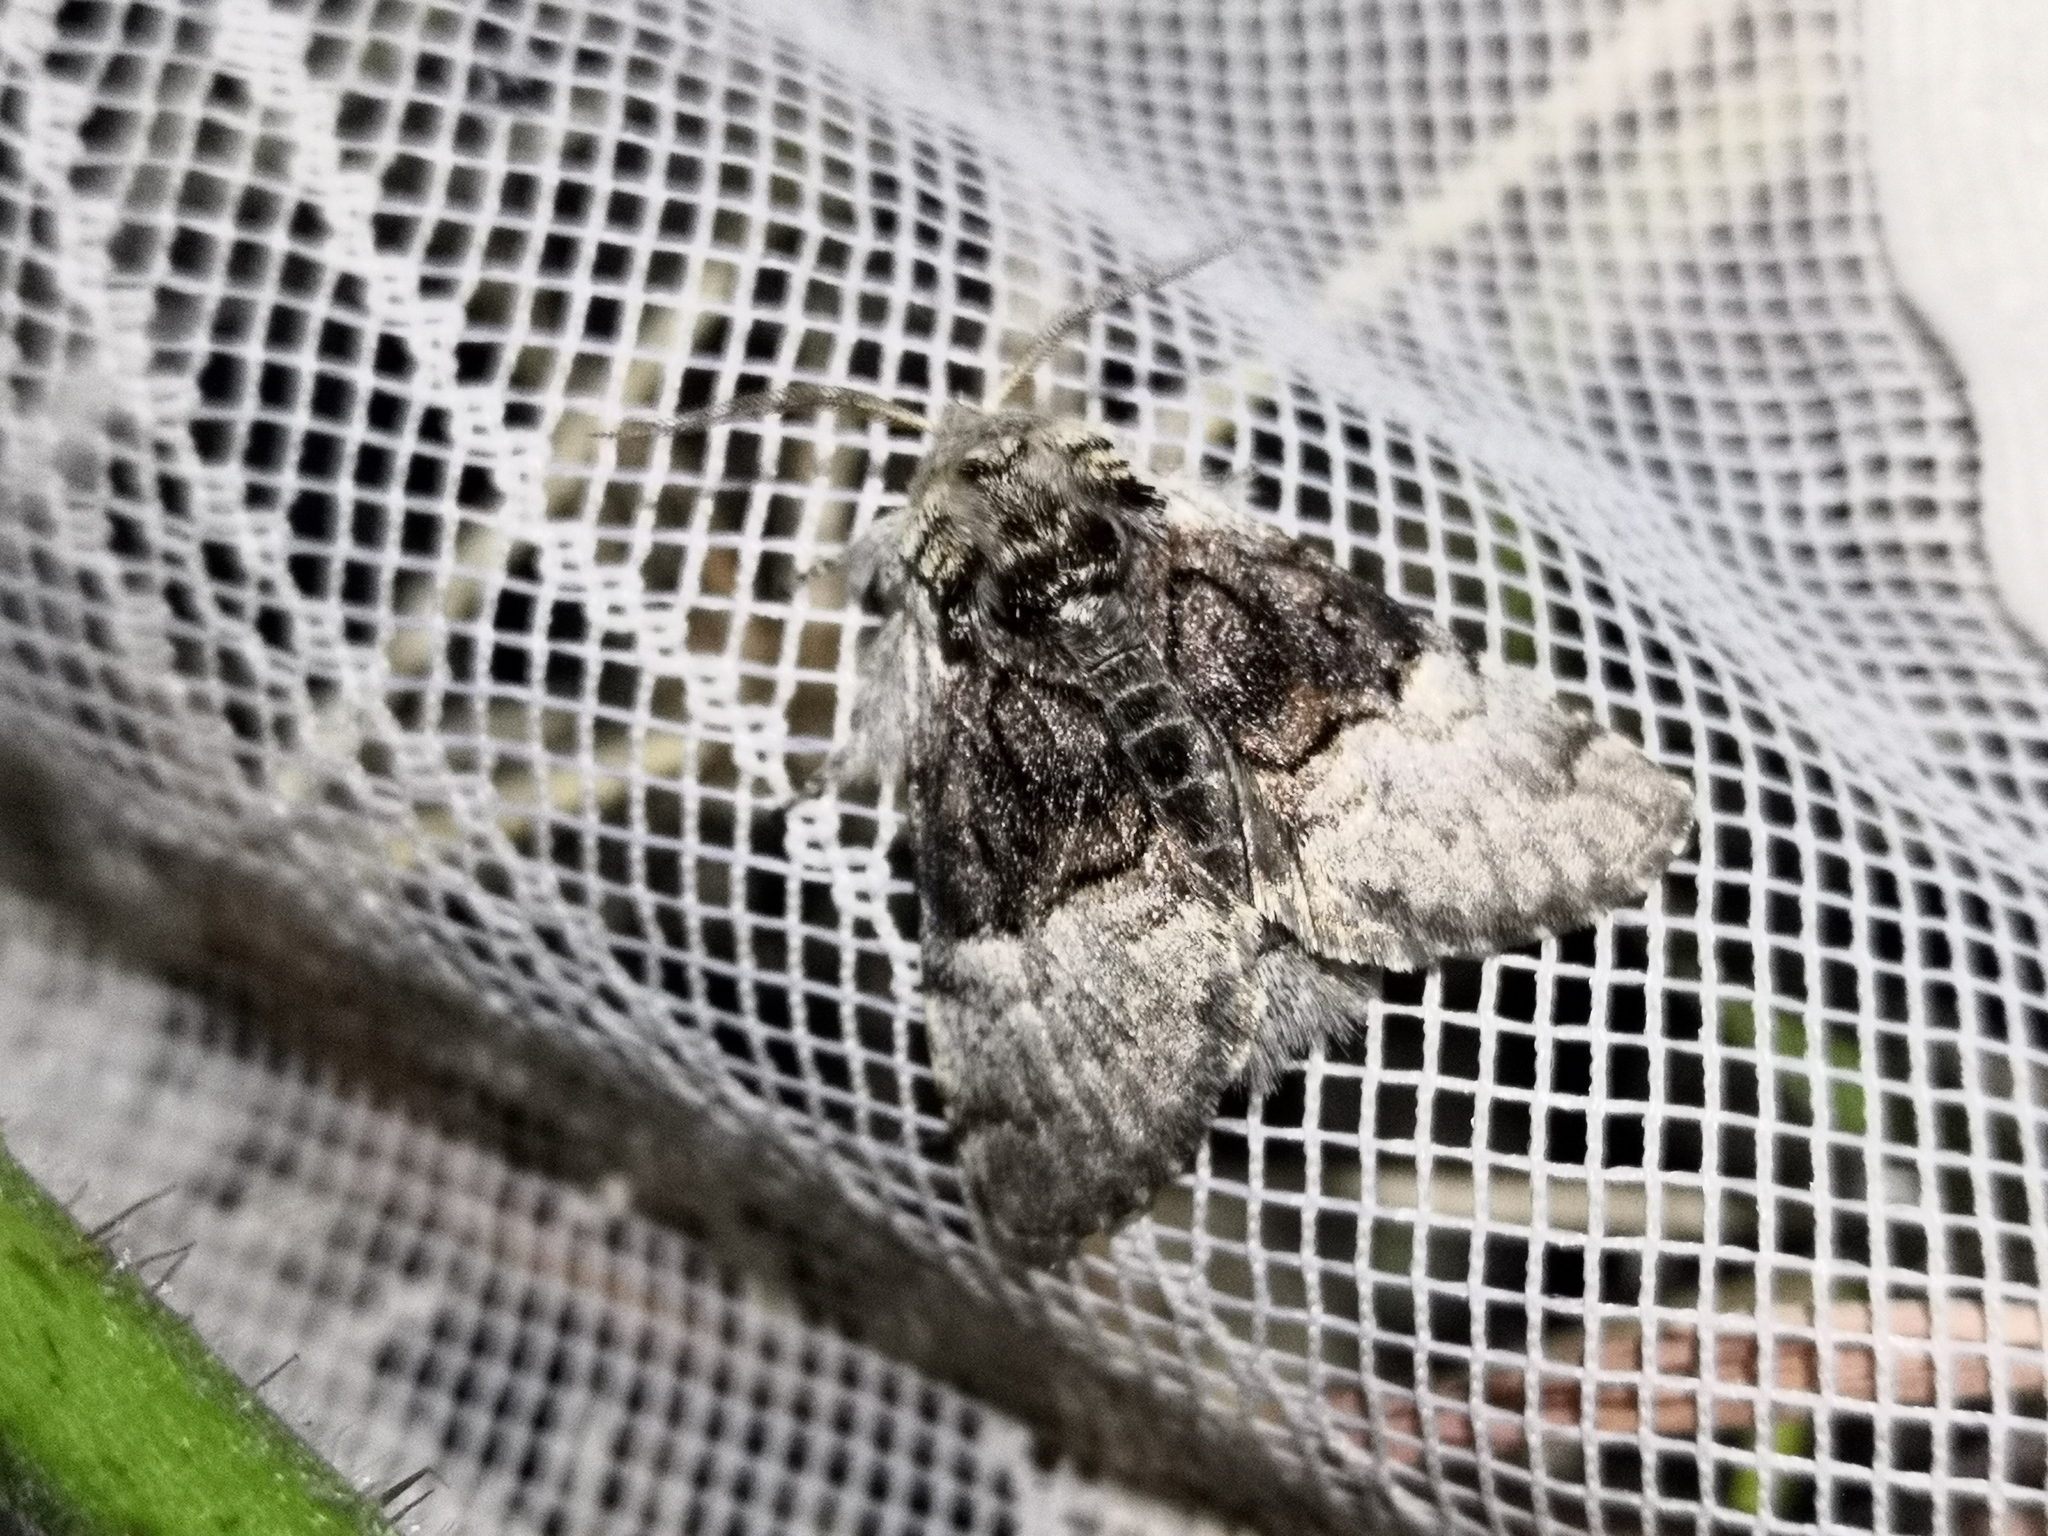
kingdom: Animalia
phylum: Arthropoda
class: Insecta
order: Lepidoptera
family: Noctuidae
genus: Colocasia
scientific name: Colocasia coryli
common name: Nut-tree tussock
